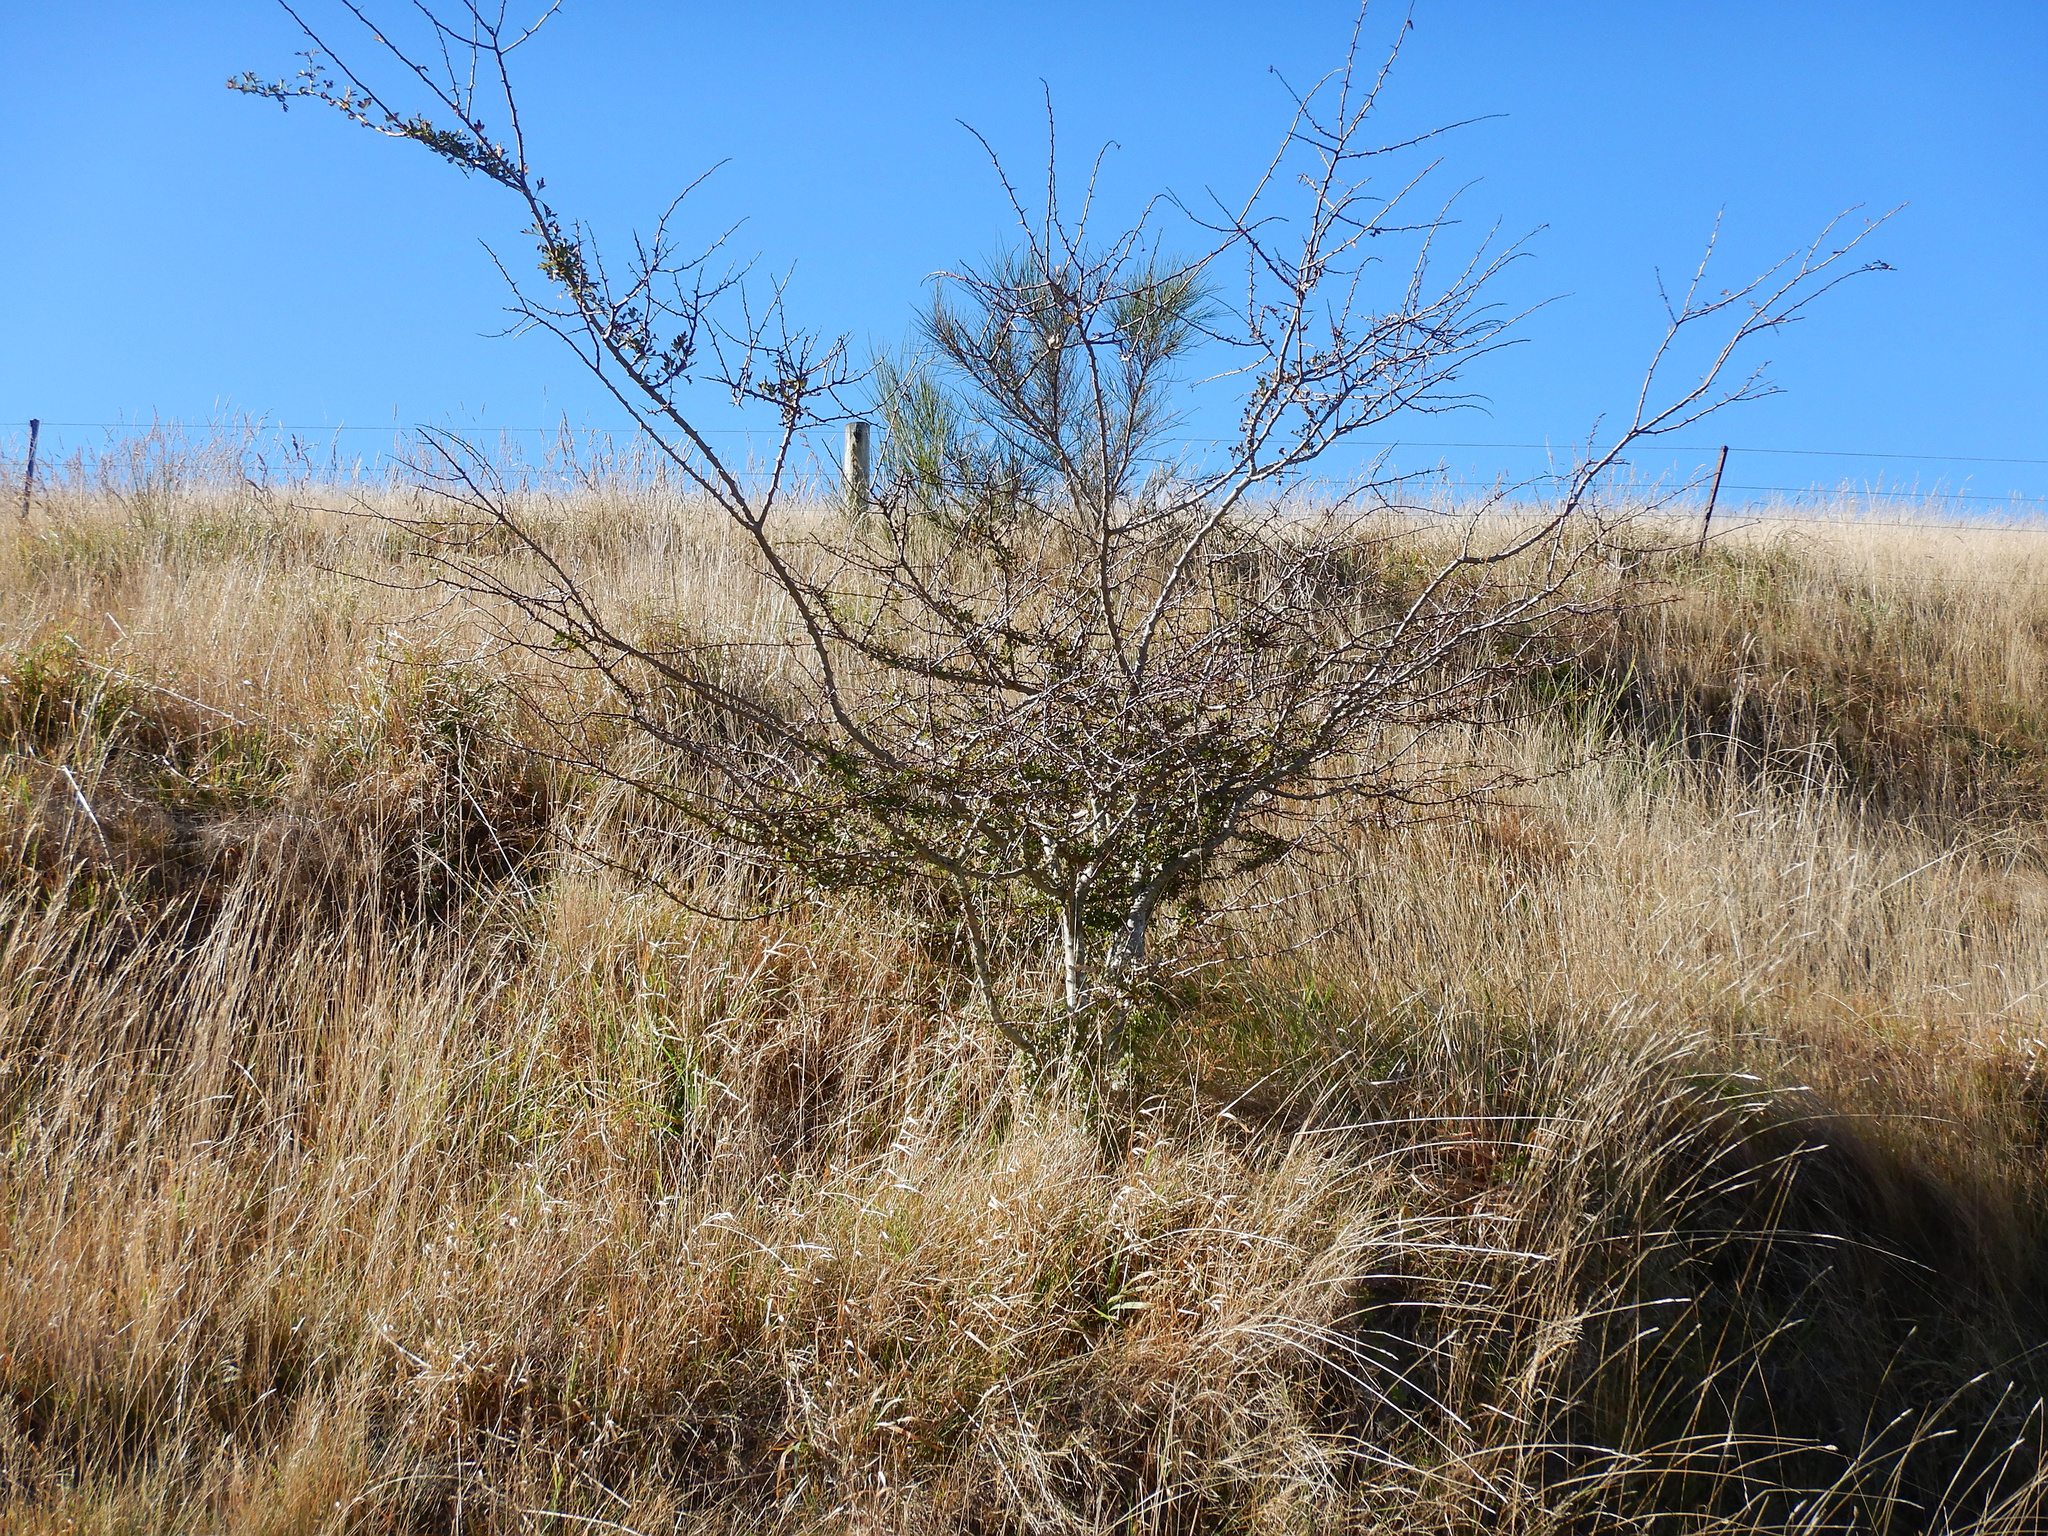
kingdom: Plantae
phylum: Tracheophyta
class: Magnoliopsida
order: Rosales
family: Rosaceae
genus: Crataegus
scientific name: Crataegus monogyna
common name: Hawthorn
